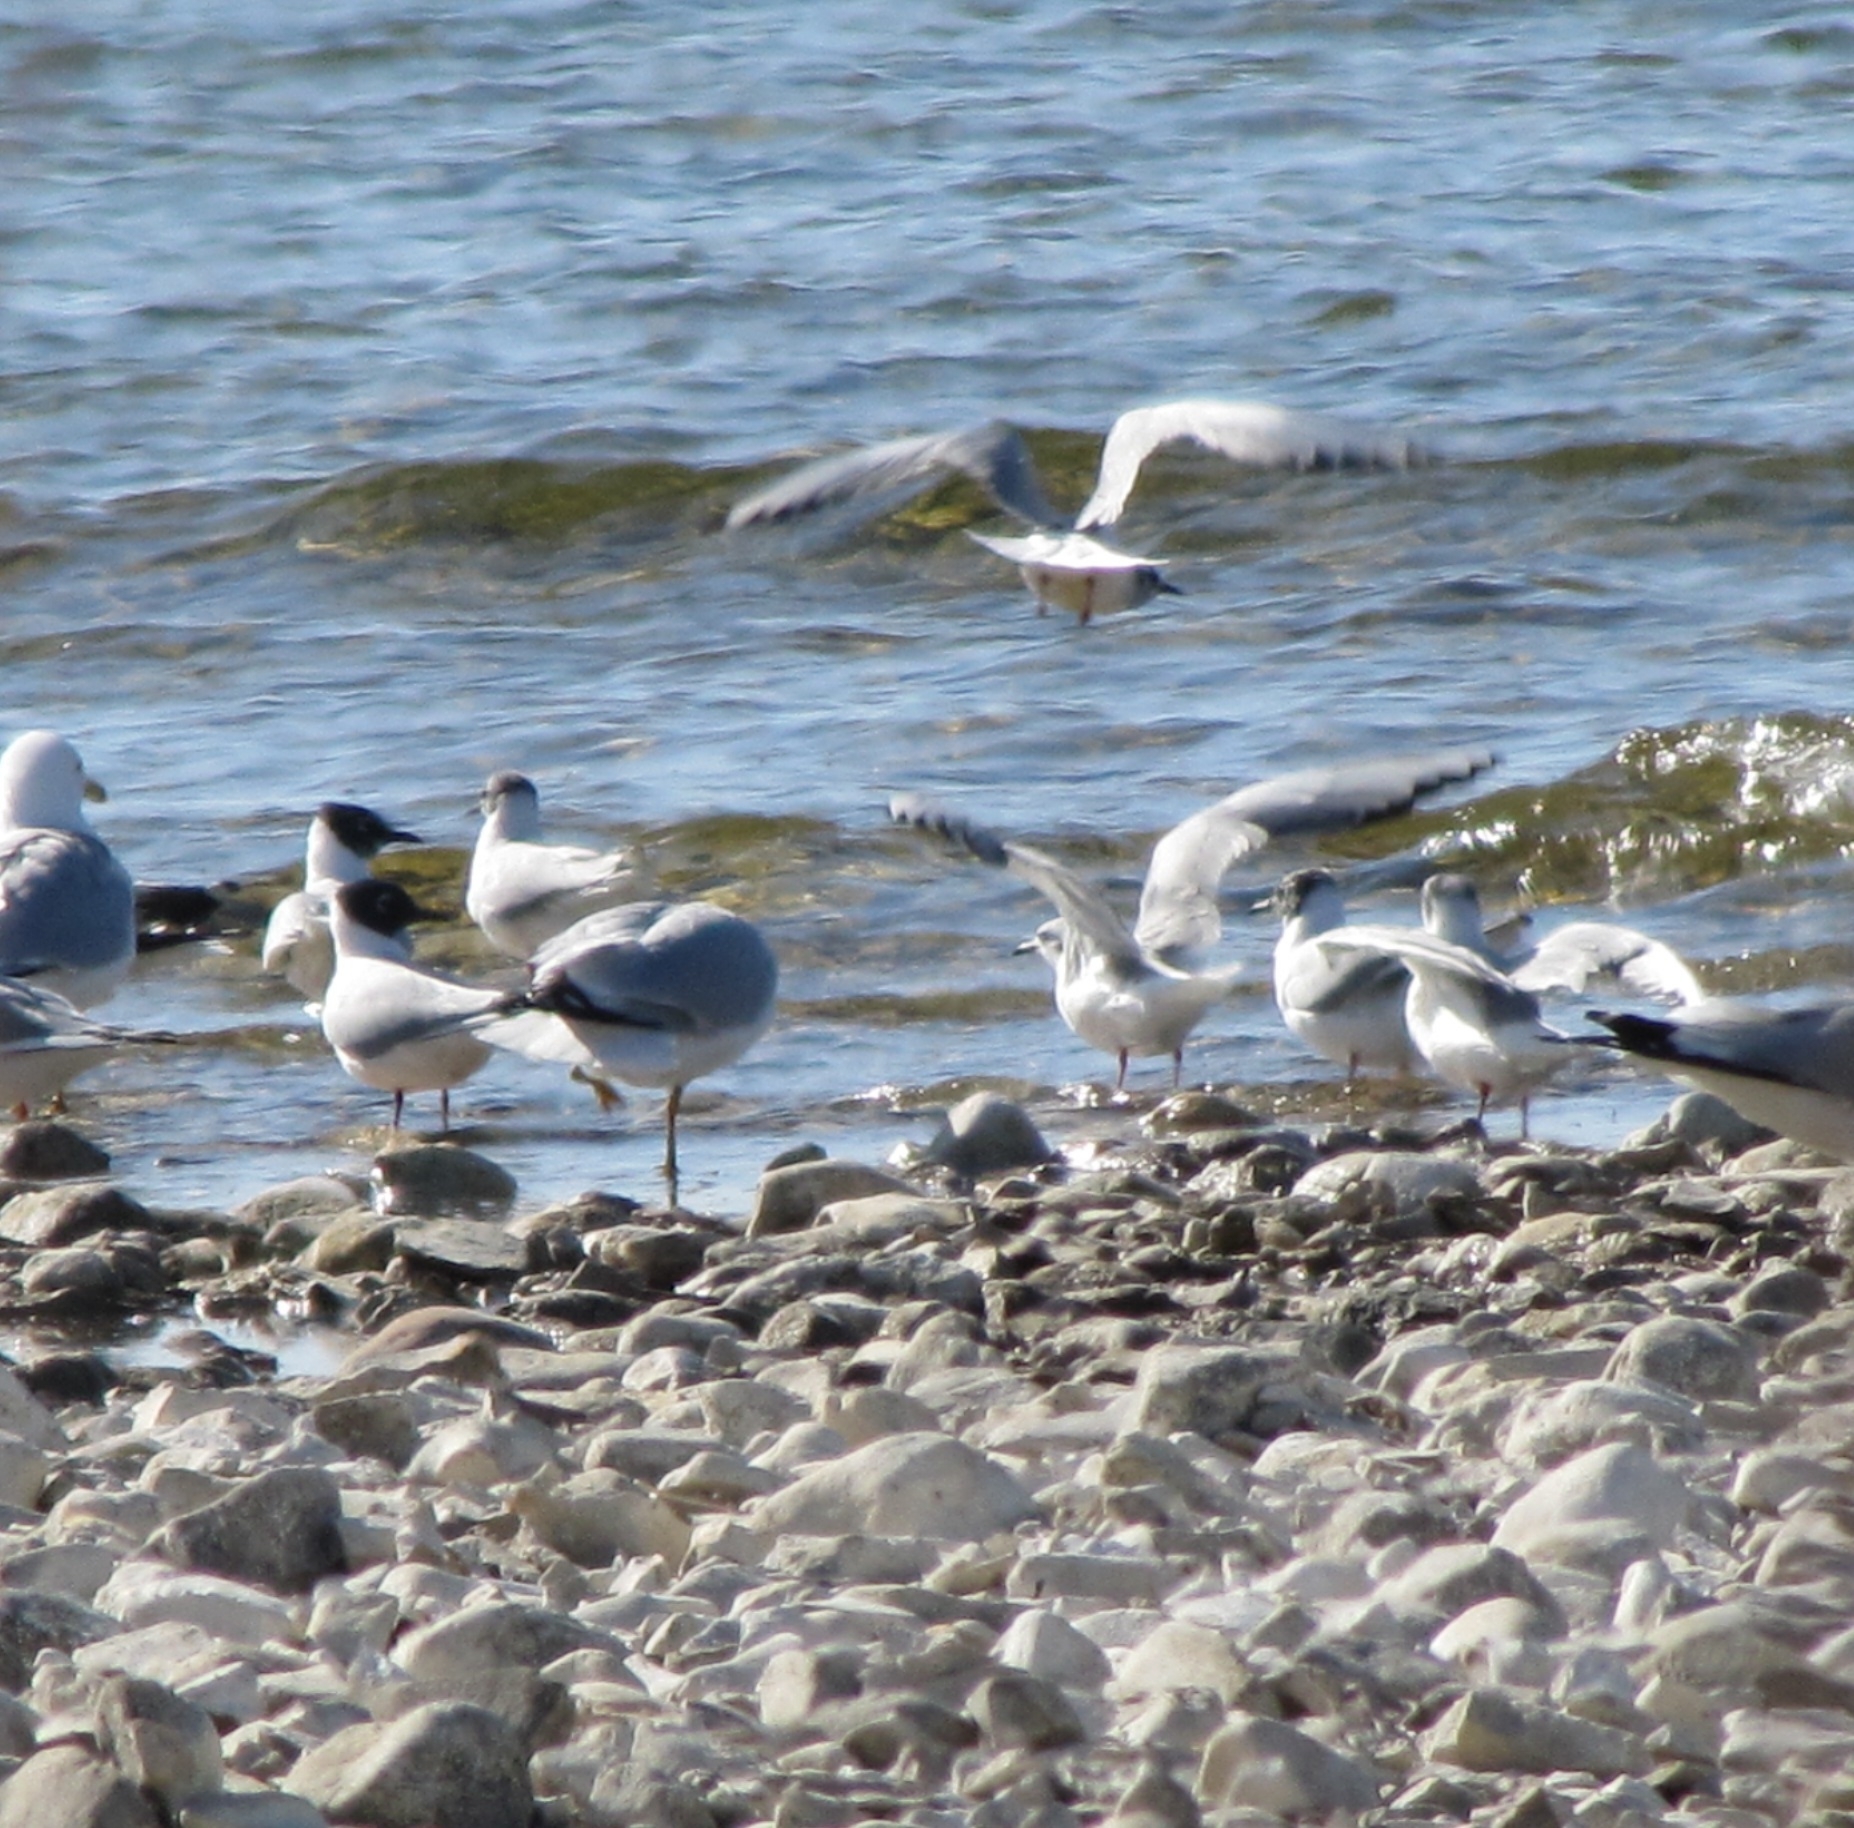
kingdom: Animalia
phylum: Chordata
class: Aves
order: Charadriiformes
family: Laridae
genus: Chroicocephalus
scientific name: Chroicocephalus philadelphia
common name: Bonaparte's gull
